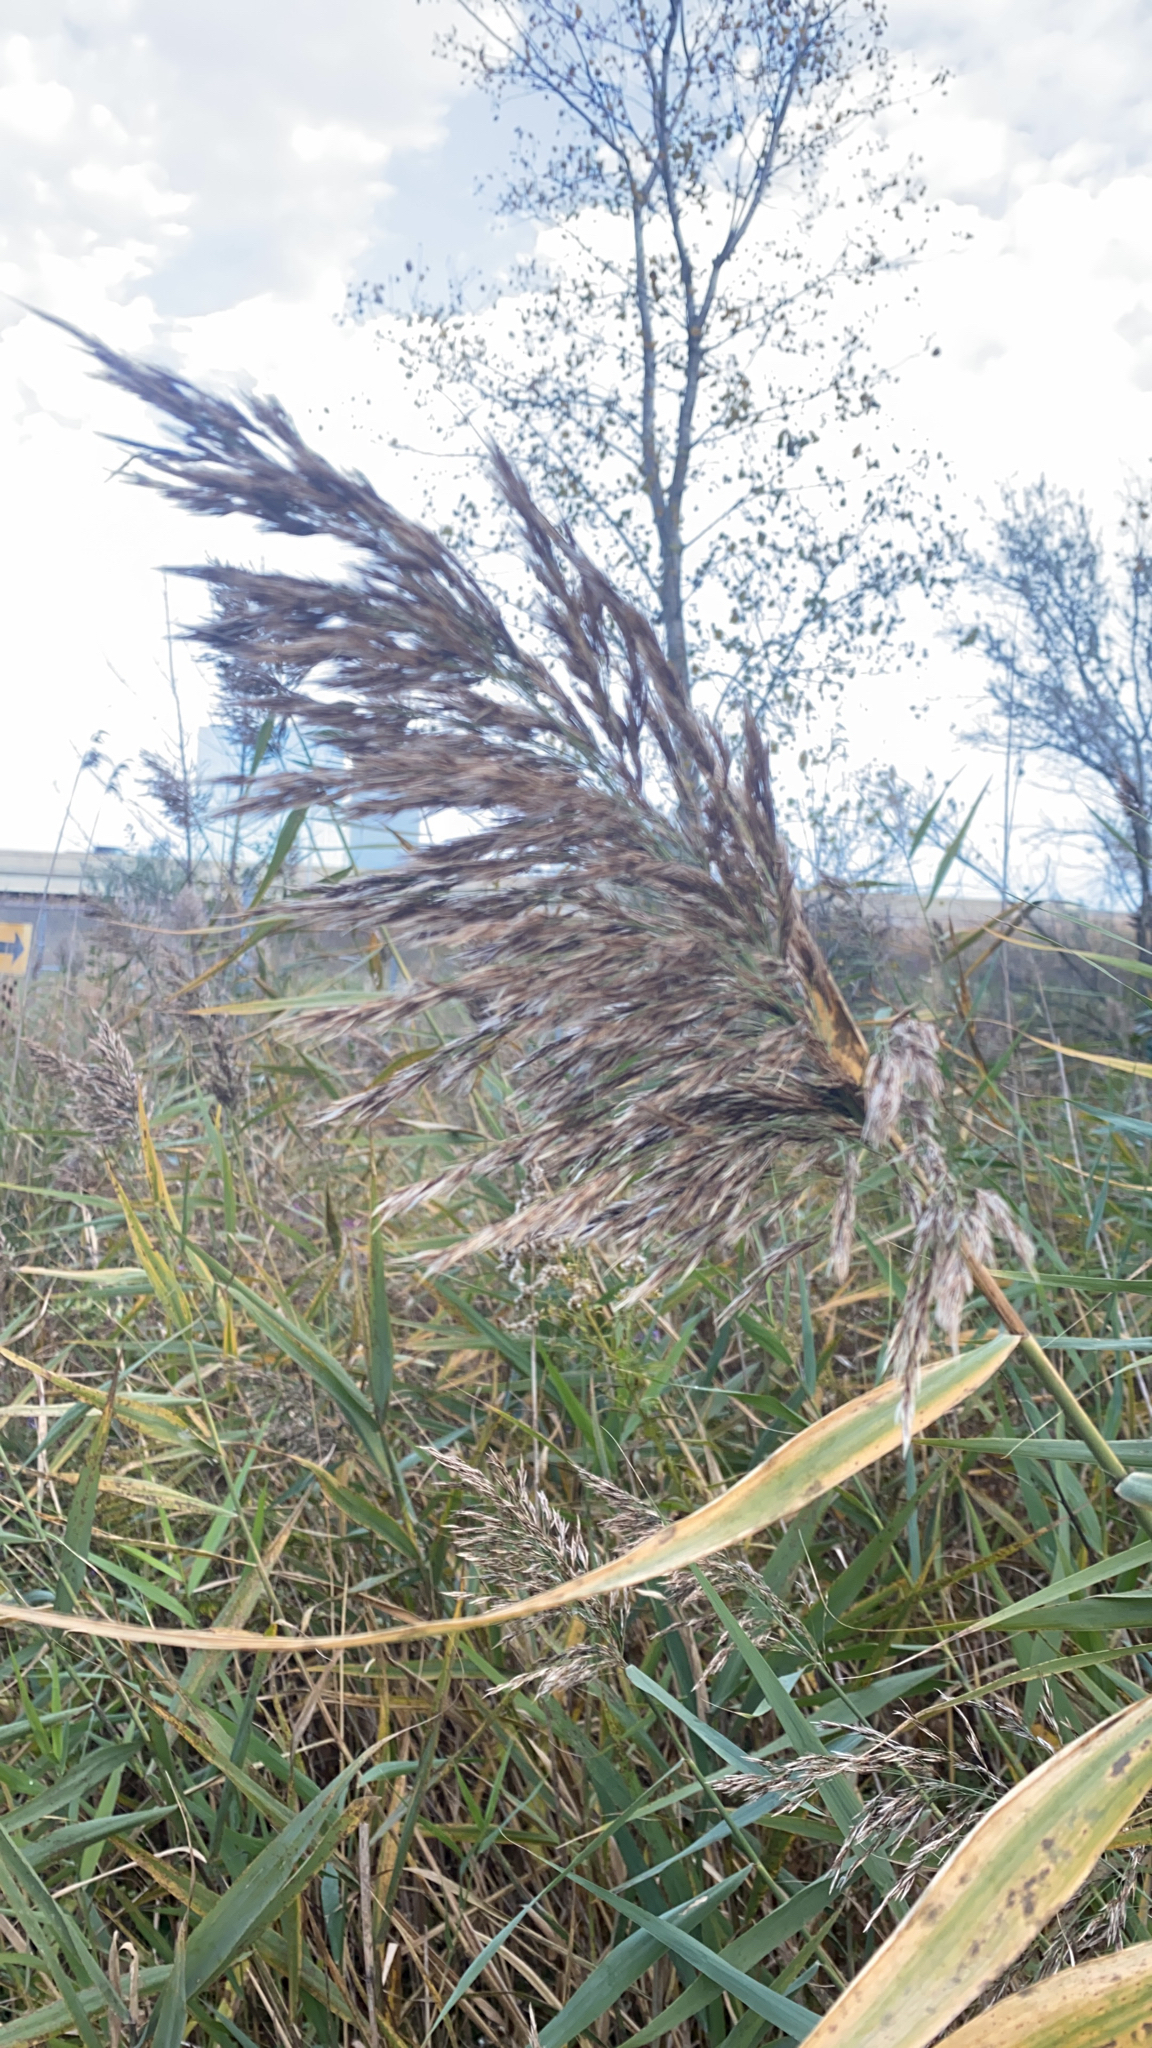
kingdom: Plantae
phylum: Tracheophyta
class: Liliopsida
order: Poales
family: Poaceae
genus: Phragmites
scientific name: Phragmites australis
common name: Common reed
